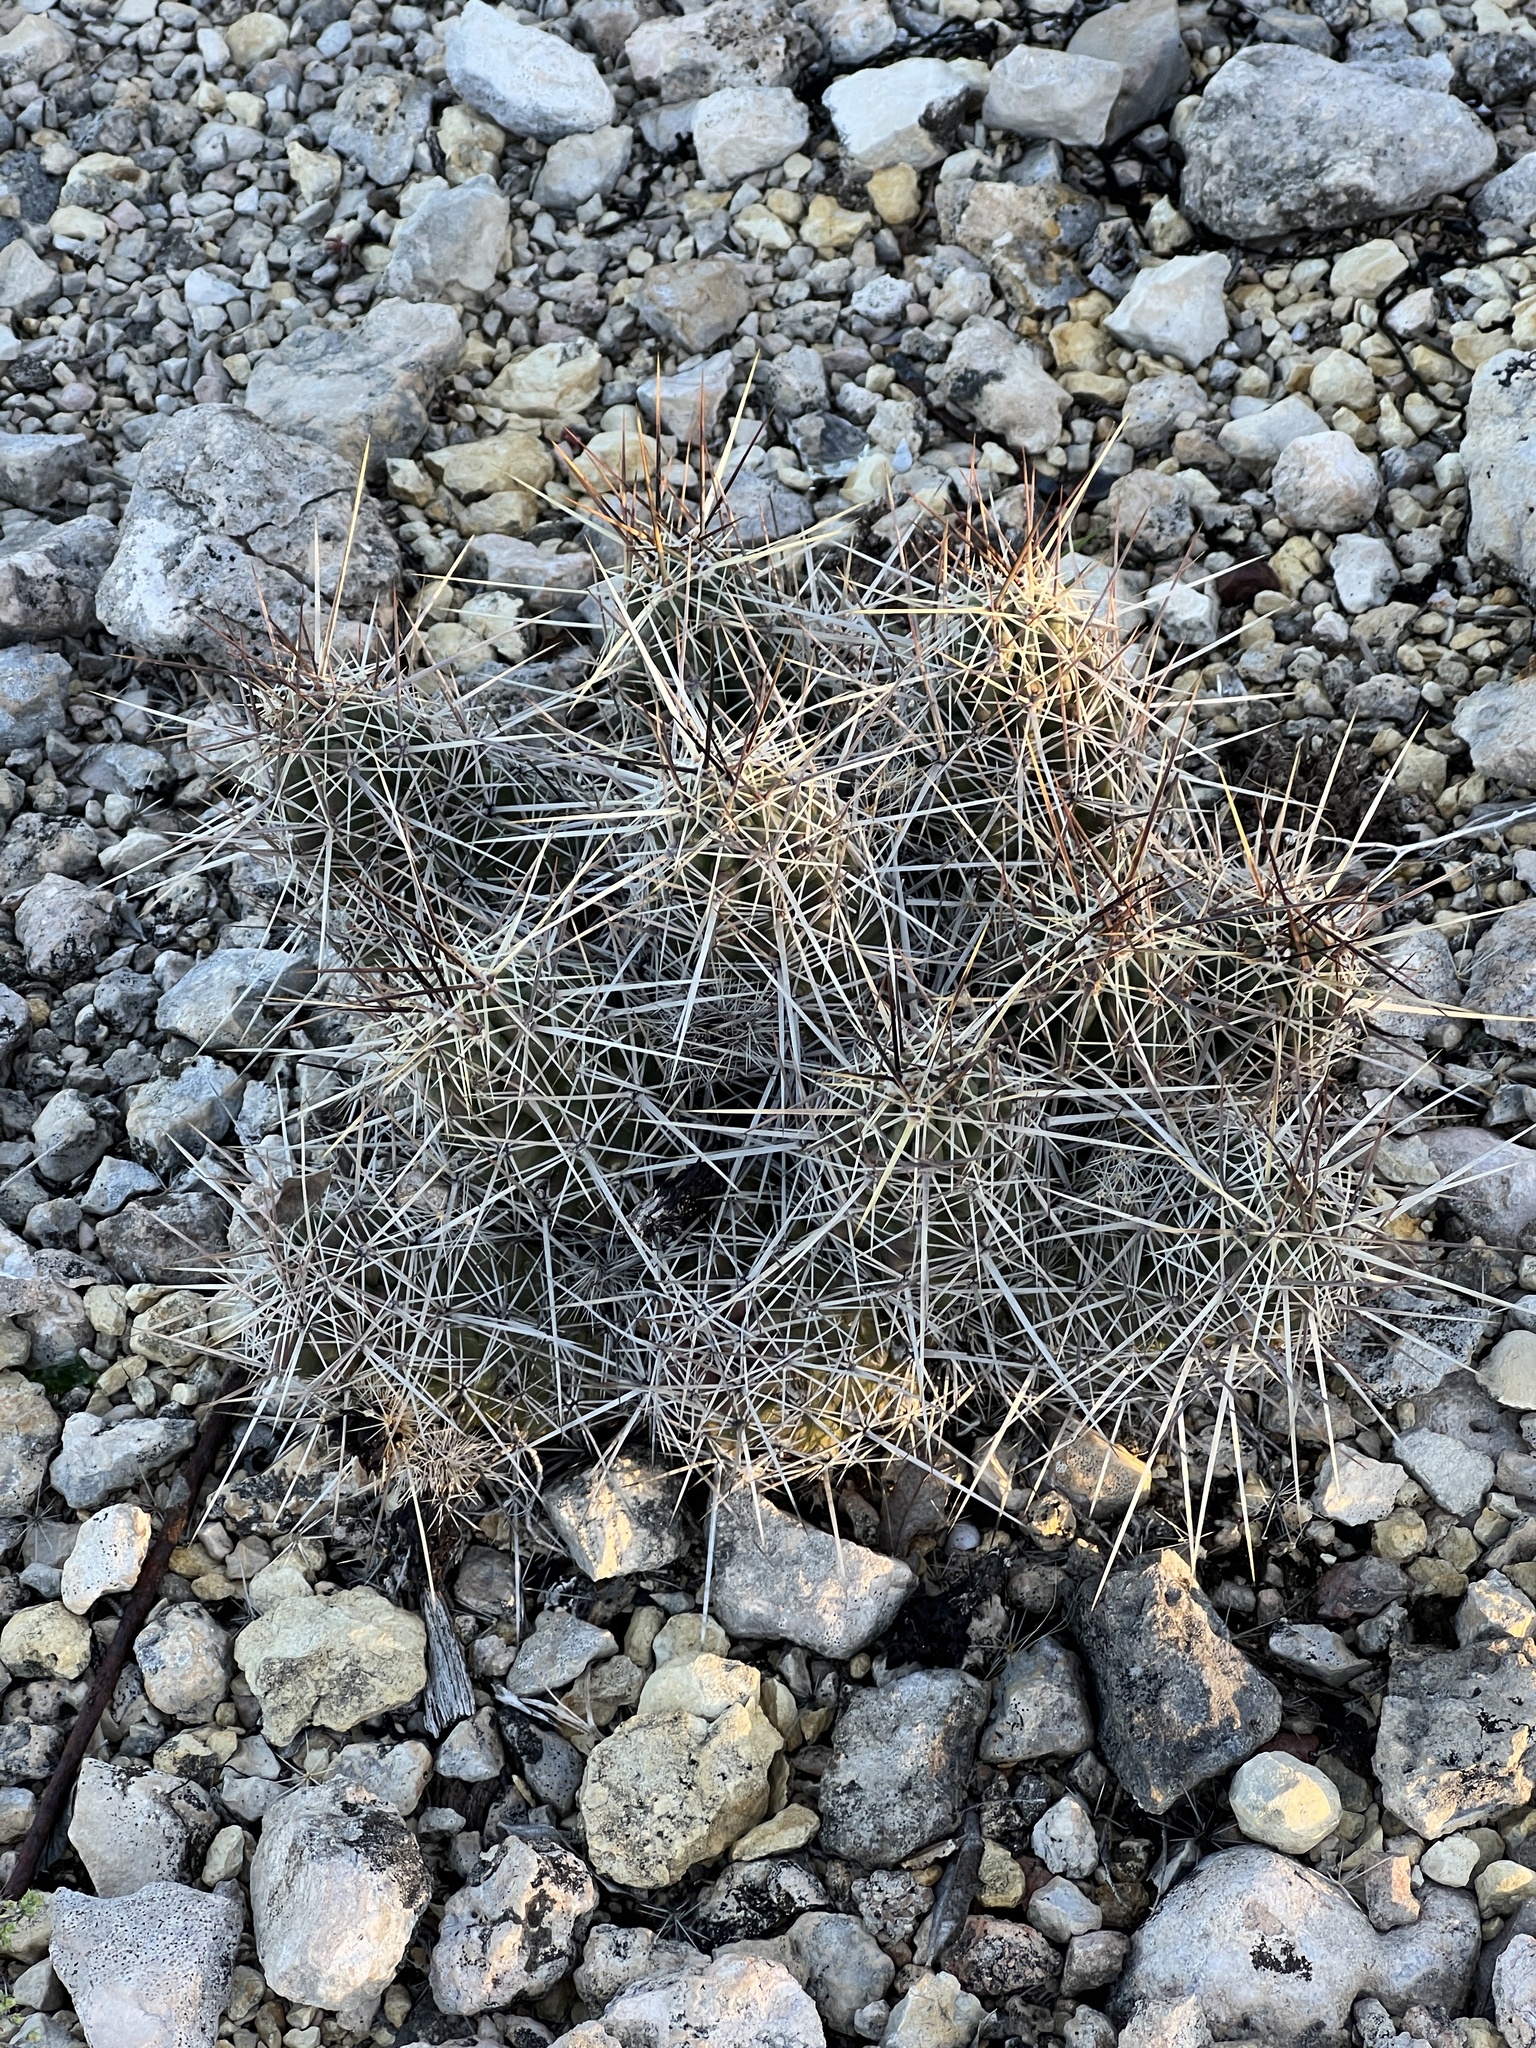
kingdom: Plantae
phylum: Tracheophyta
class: Magnoliopsida
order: Caryophyllales
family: Cactaceae
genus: Echinocereus
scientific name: Echinocereus enneacanthus
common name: Pitaya
